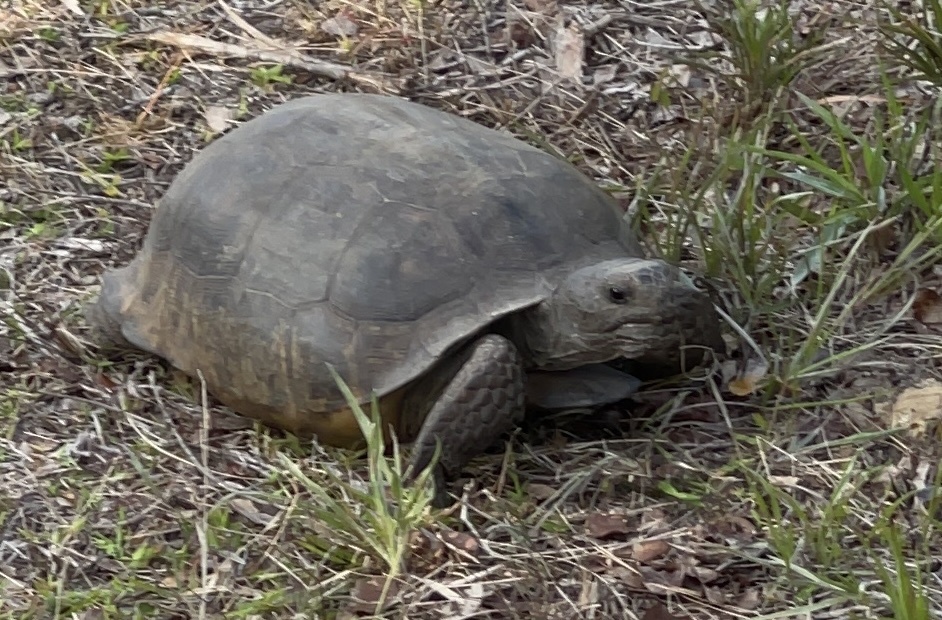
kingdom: Animalia
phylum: Chordata
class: Testudines
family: Testudinidae
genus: Gopherus
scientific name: Gopherus polyphemus
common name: Florida gopher tortoise
